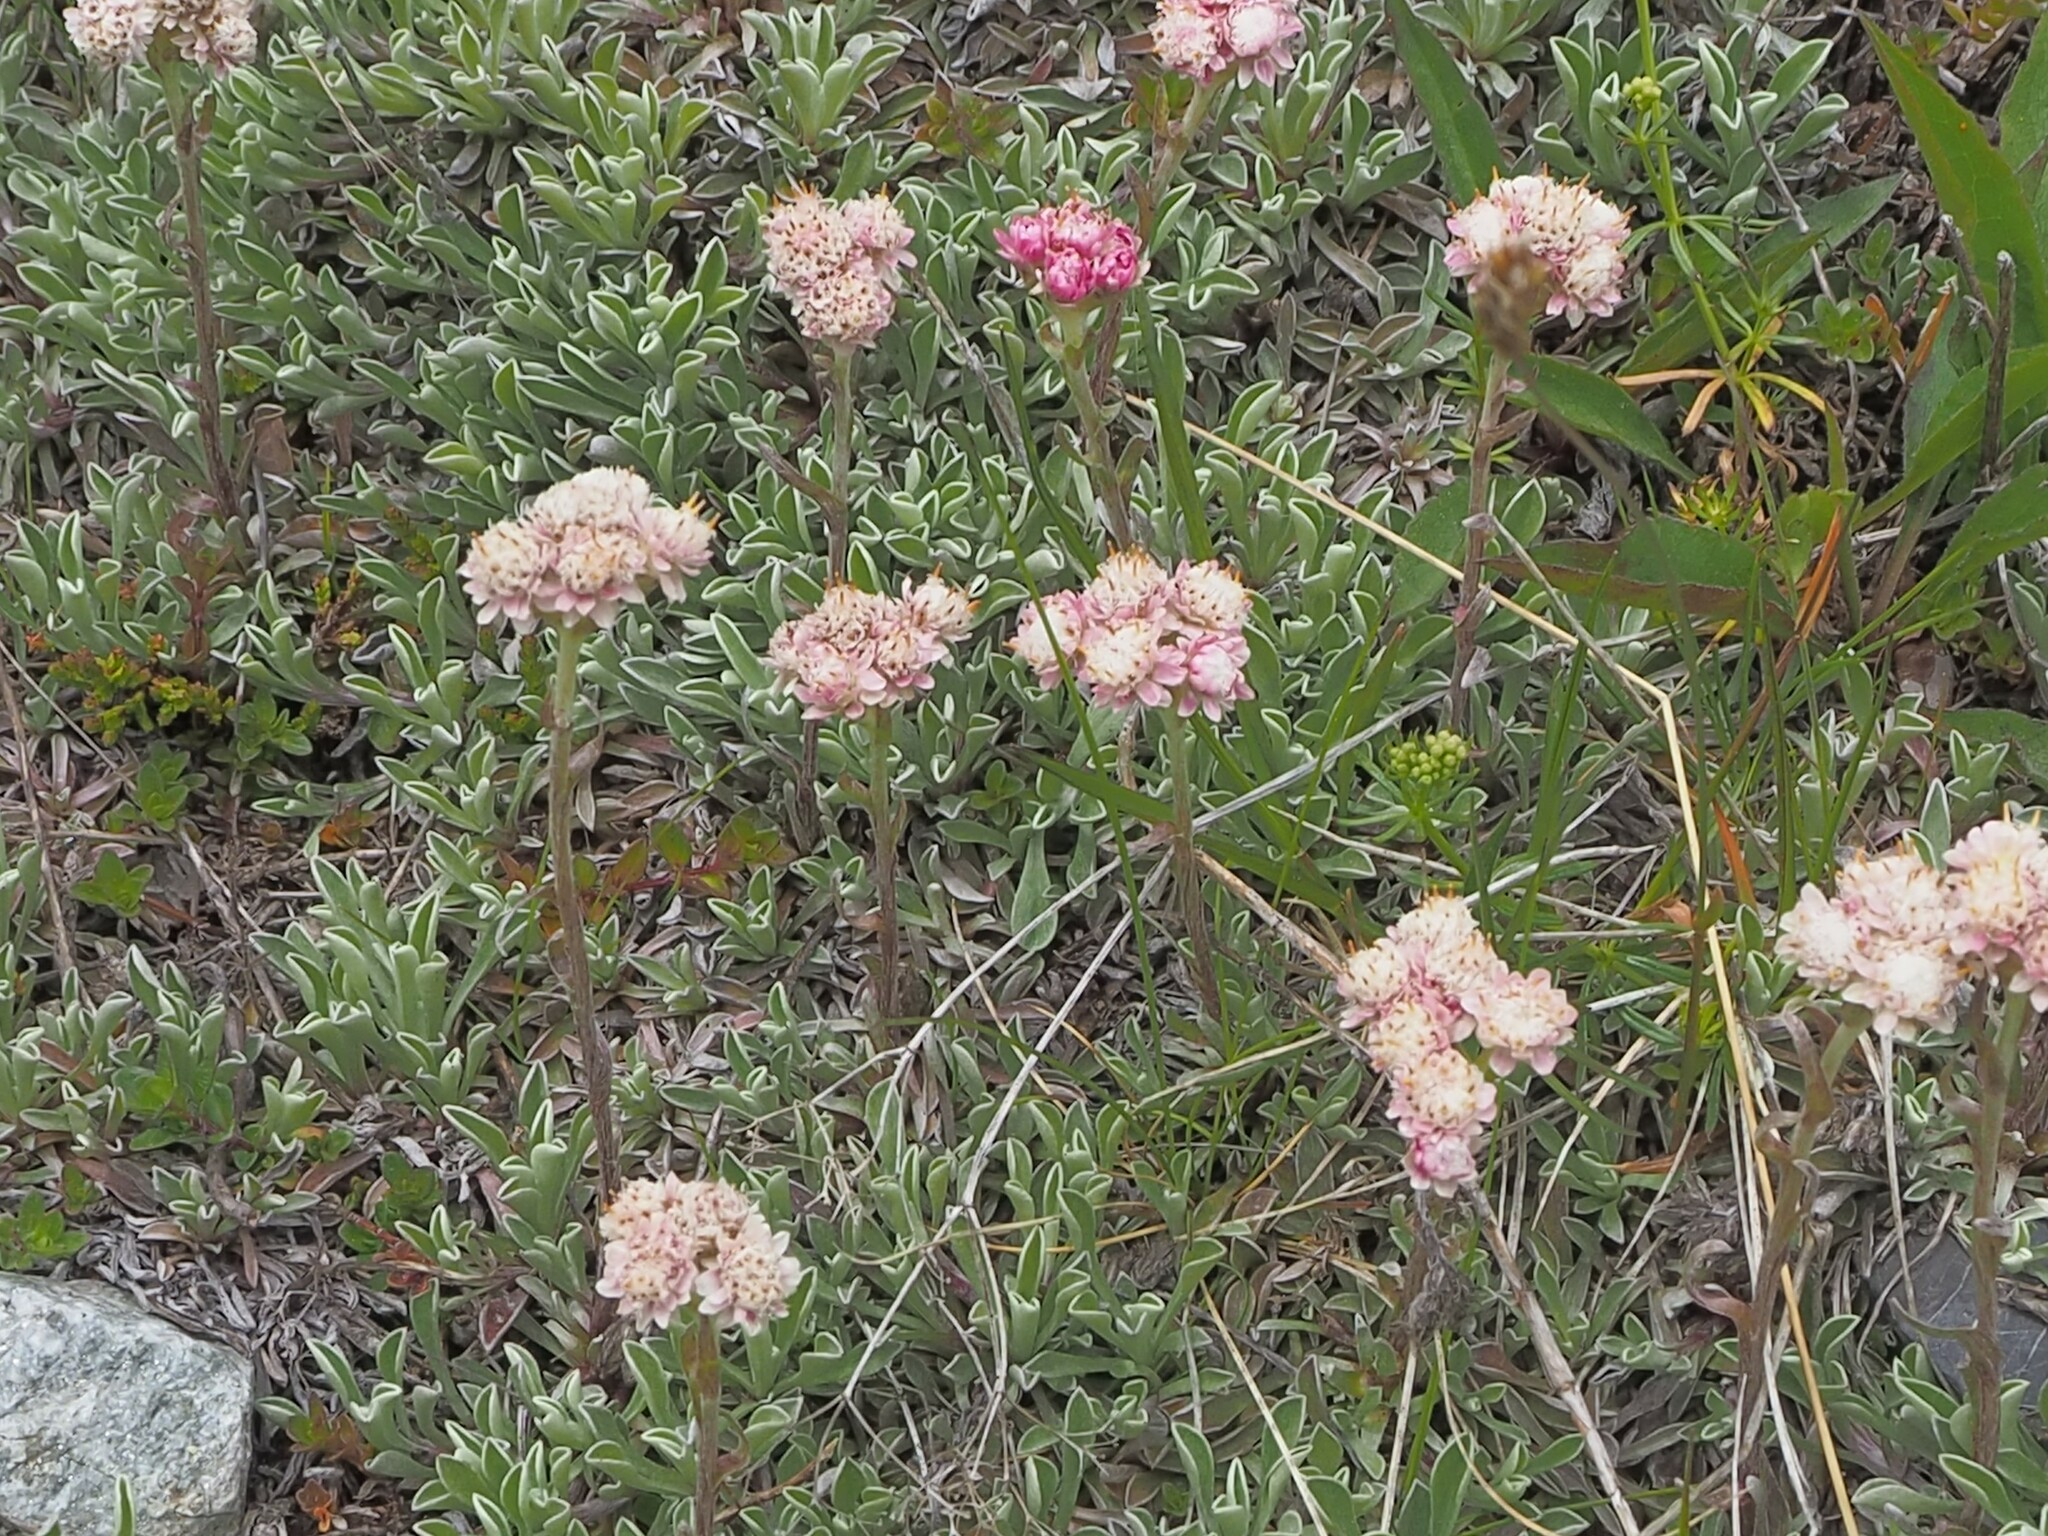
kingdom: Plantae
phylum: Tracheophyta
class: Magnoliopsida
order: Asterales
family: Asteraceae
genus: Antennaria
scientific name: Antennaria dioica
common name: Mountain everlasting
